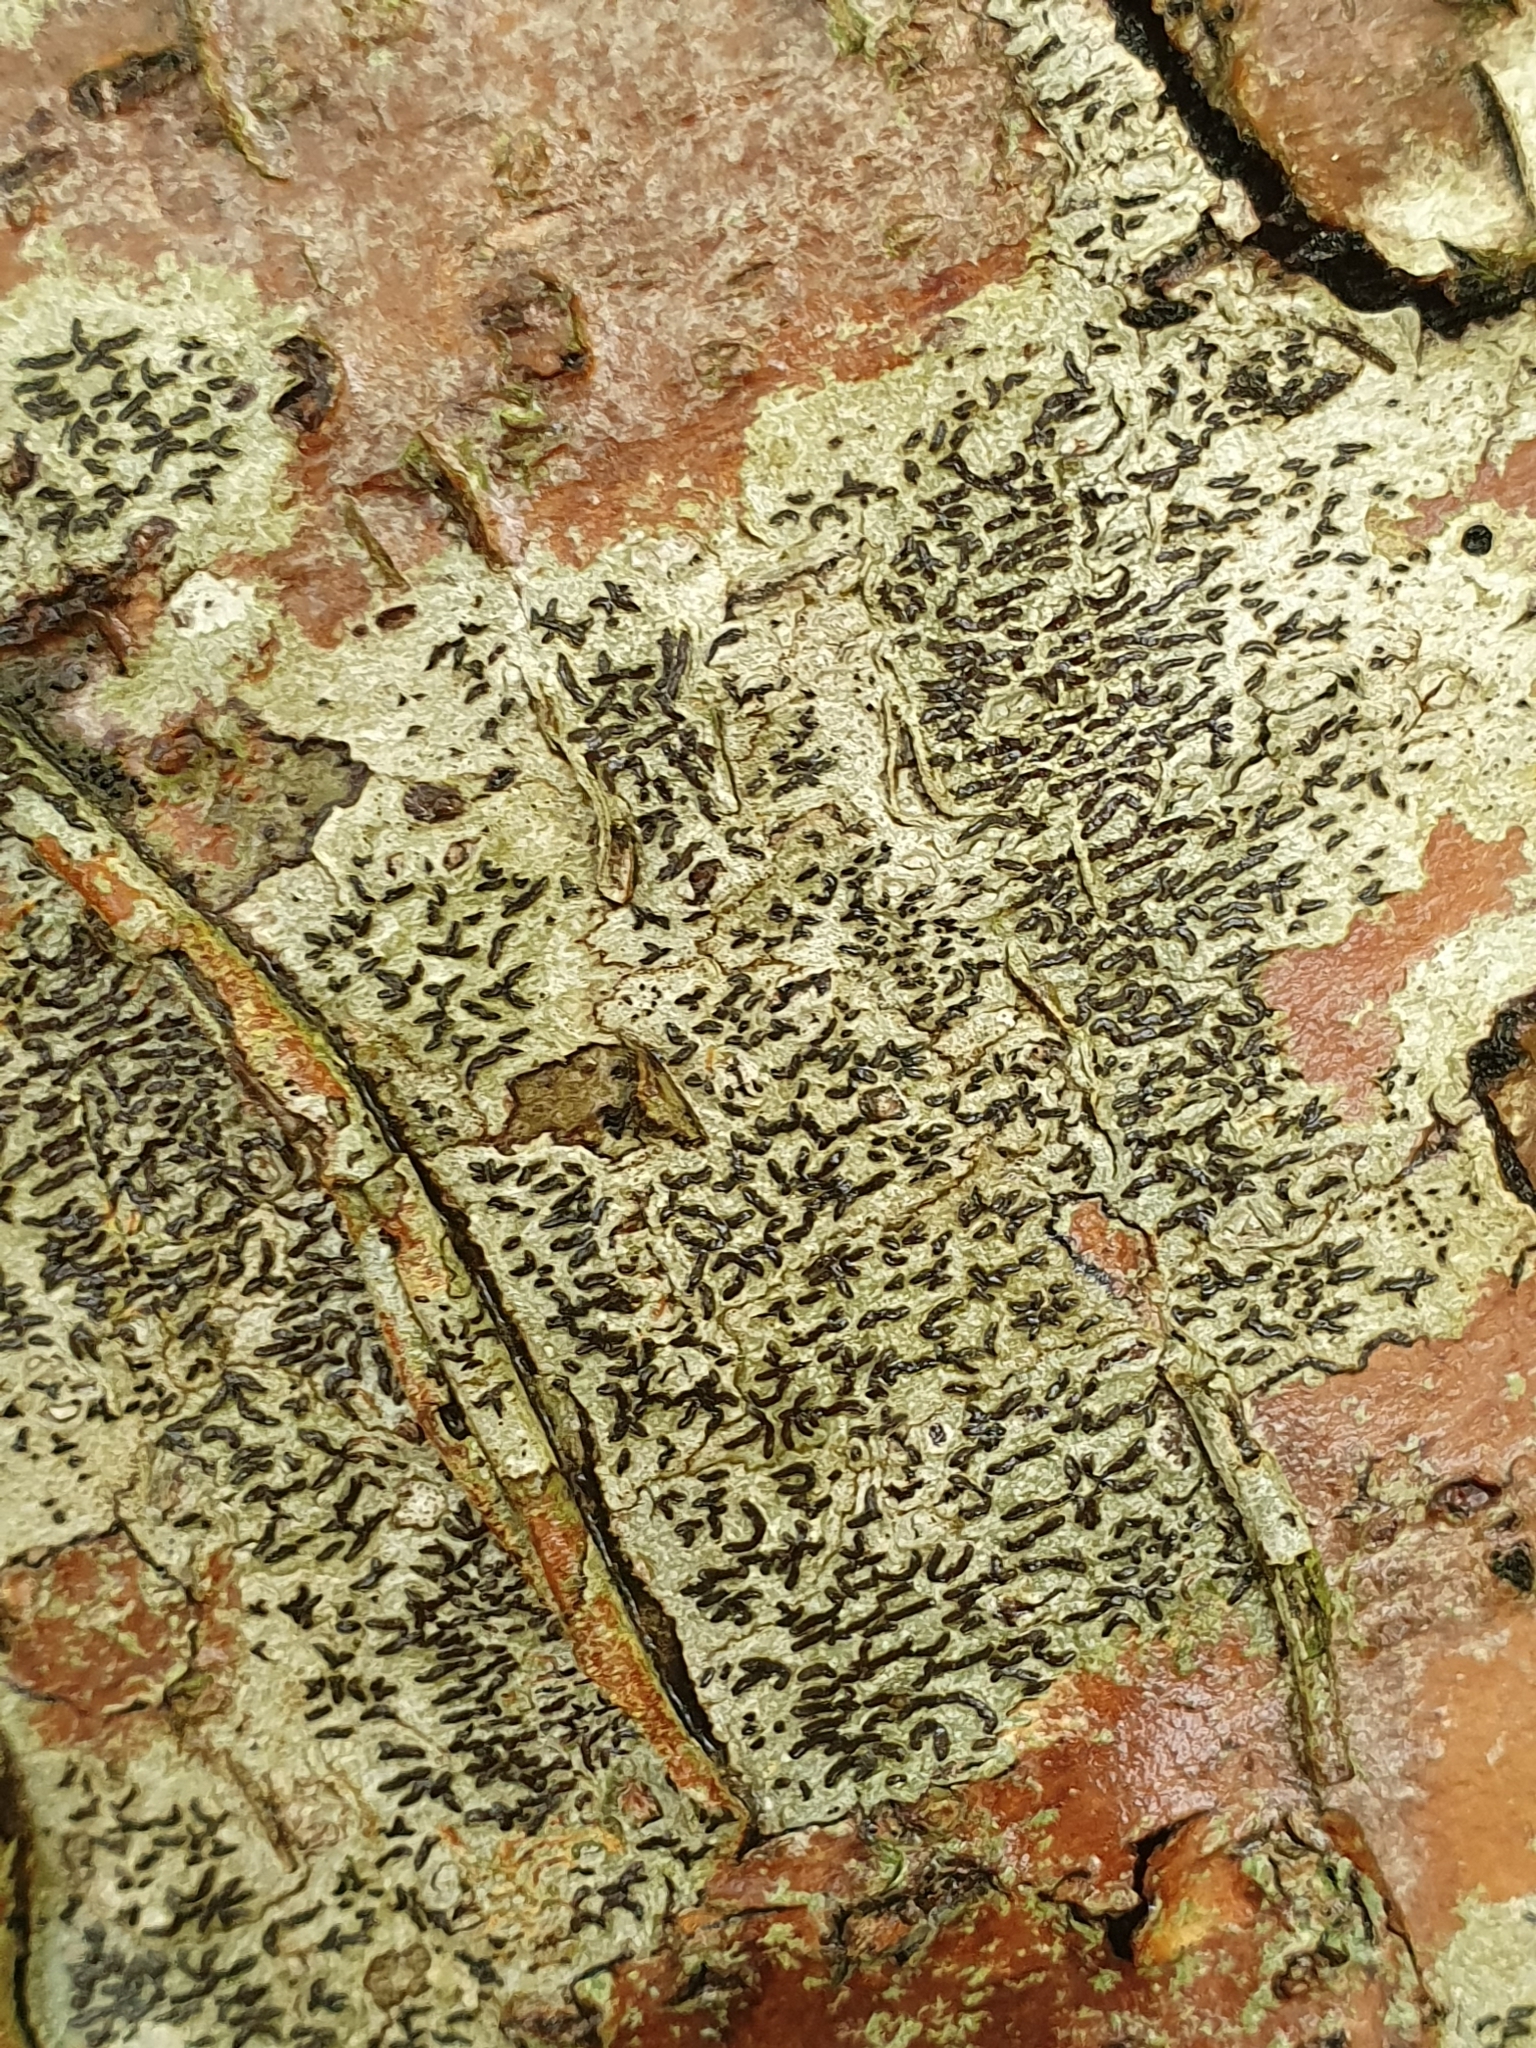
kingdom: Fungi
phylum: Ascomycota
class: Lecanoromycetes
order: Ostropales
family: Graphidaceae
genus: Graphis
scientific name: Graphis scripta
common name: Script lichen
